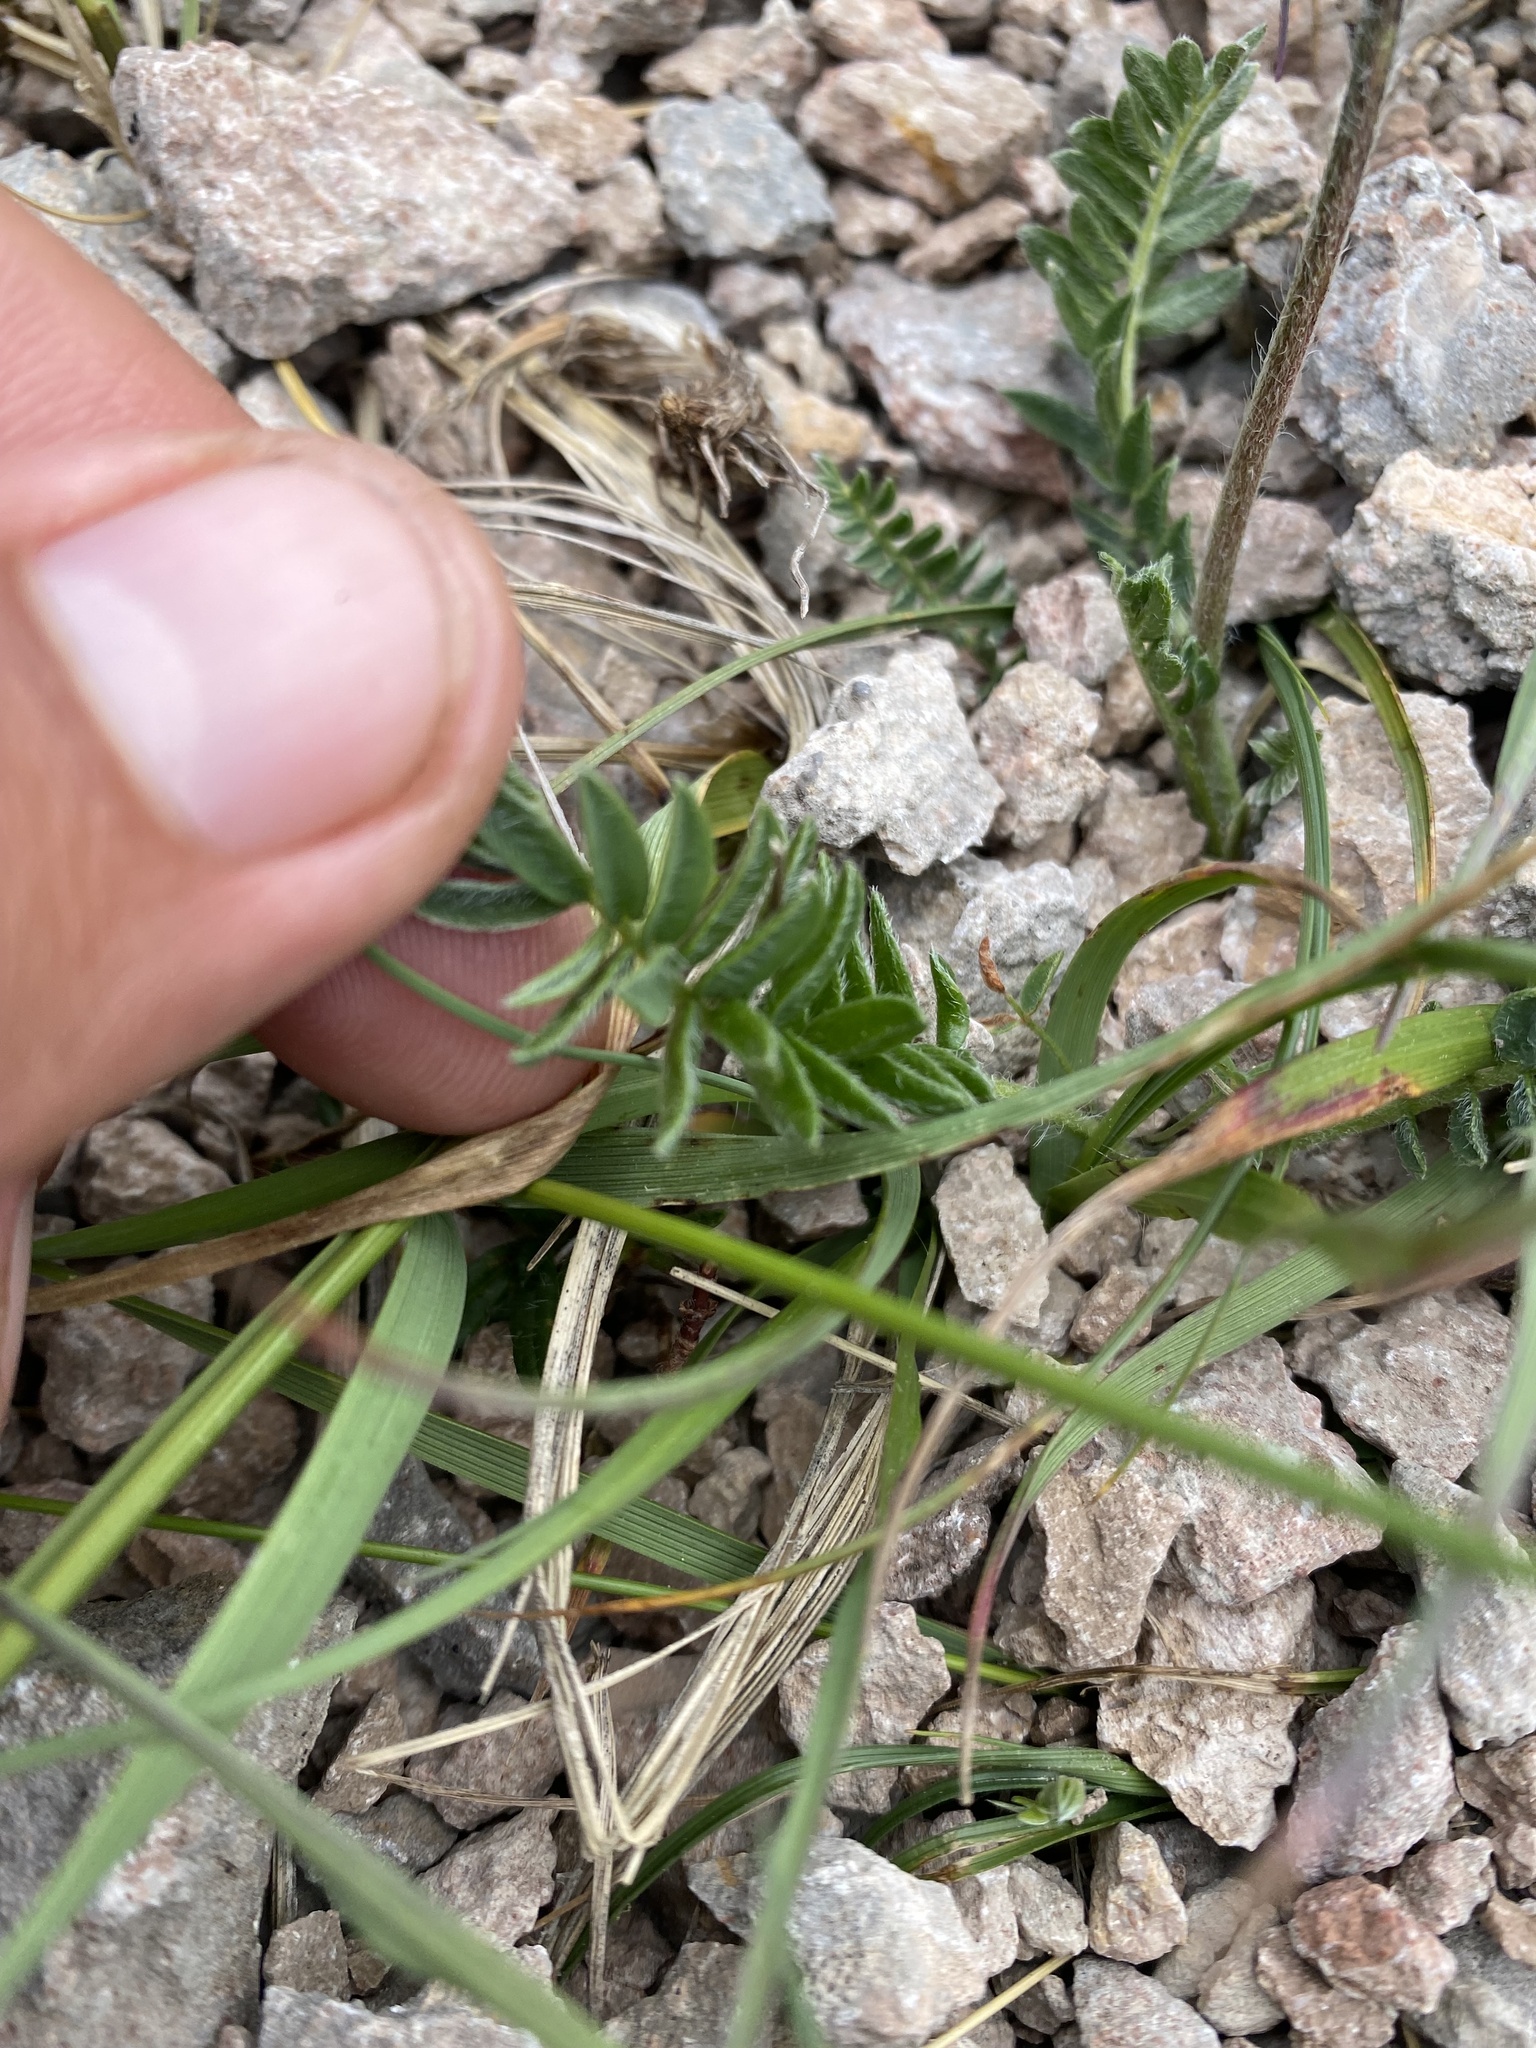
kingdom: Plantae
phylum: Tracheophyta
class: Magnoliopsida
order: Fabales
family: Fabaceae
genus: Oxytropis
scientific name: Oxytropis lazica
